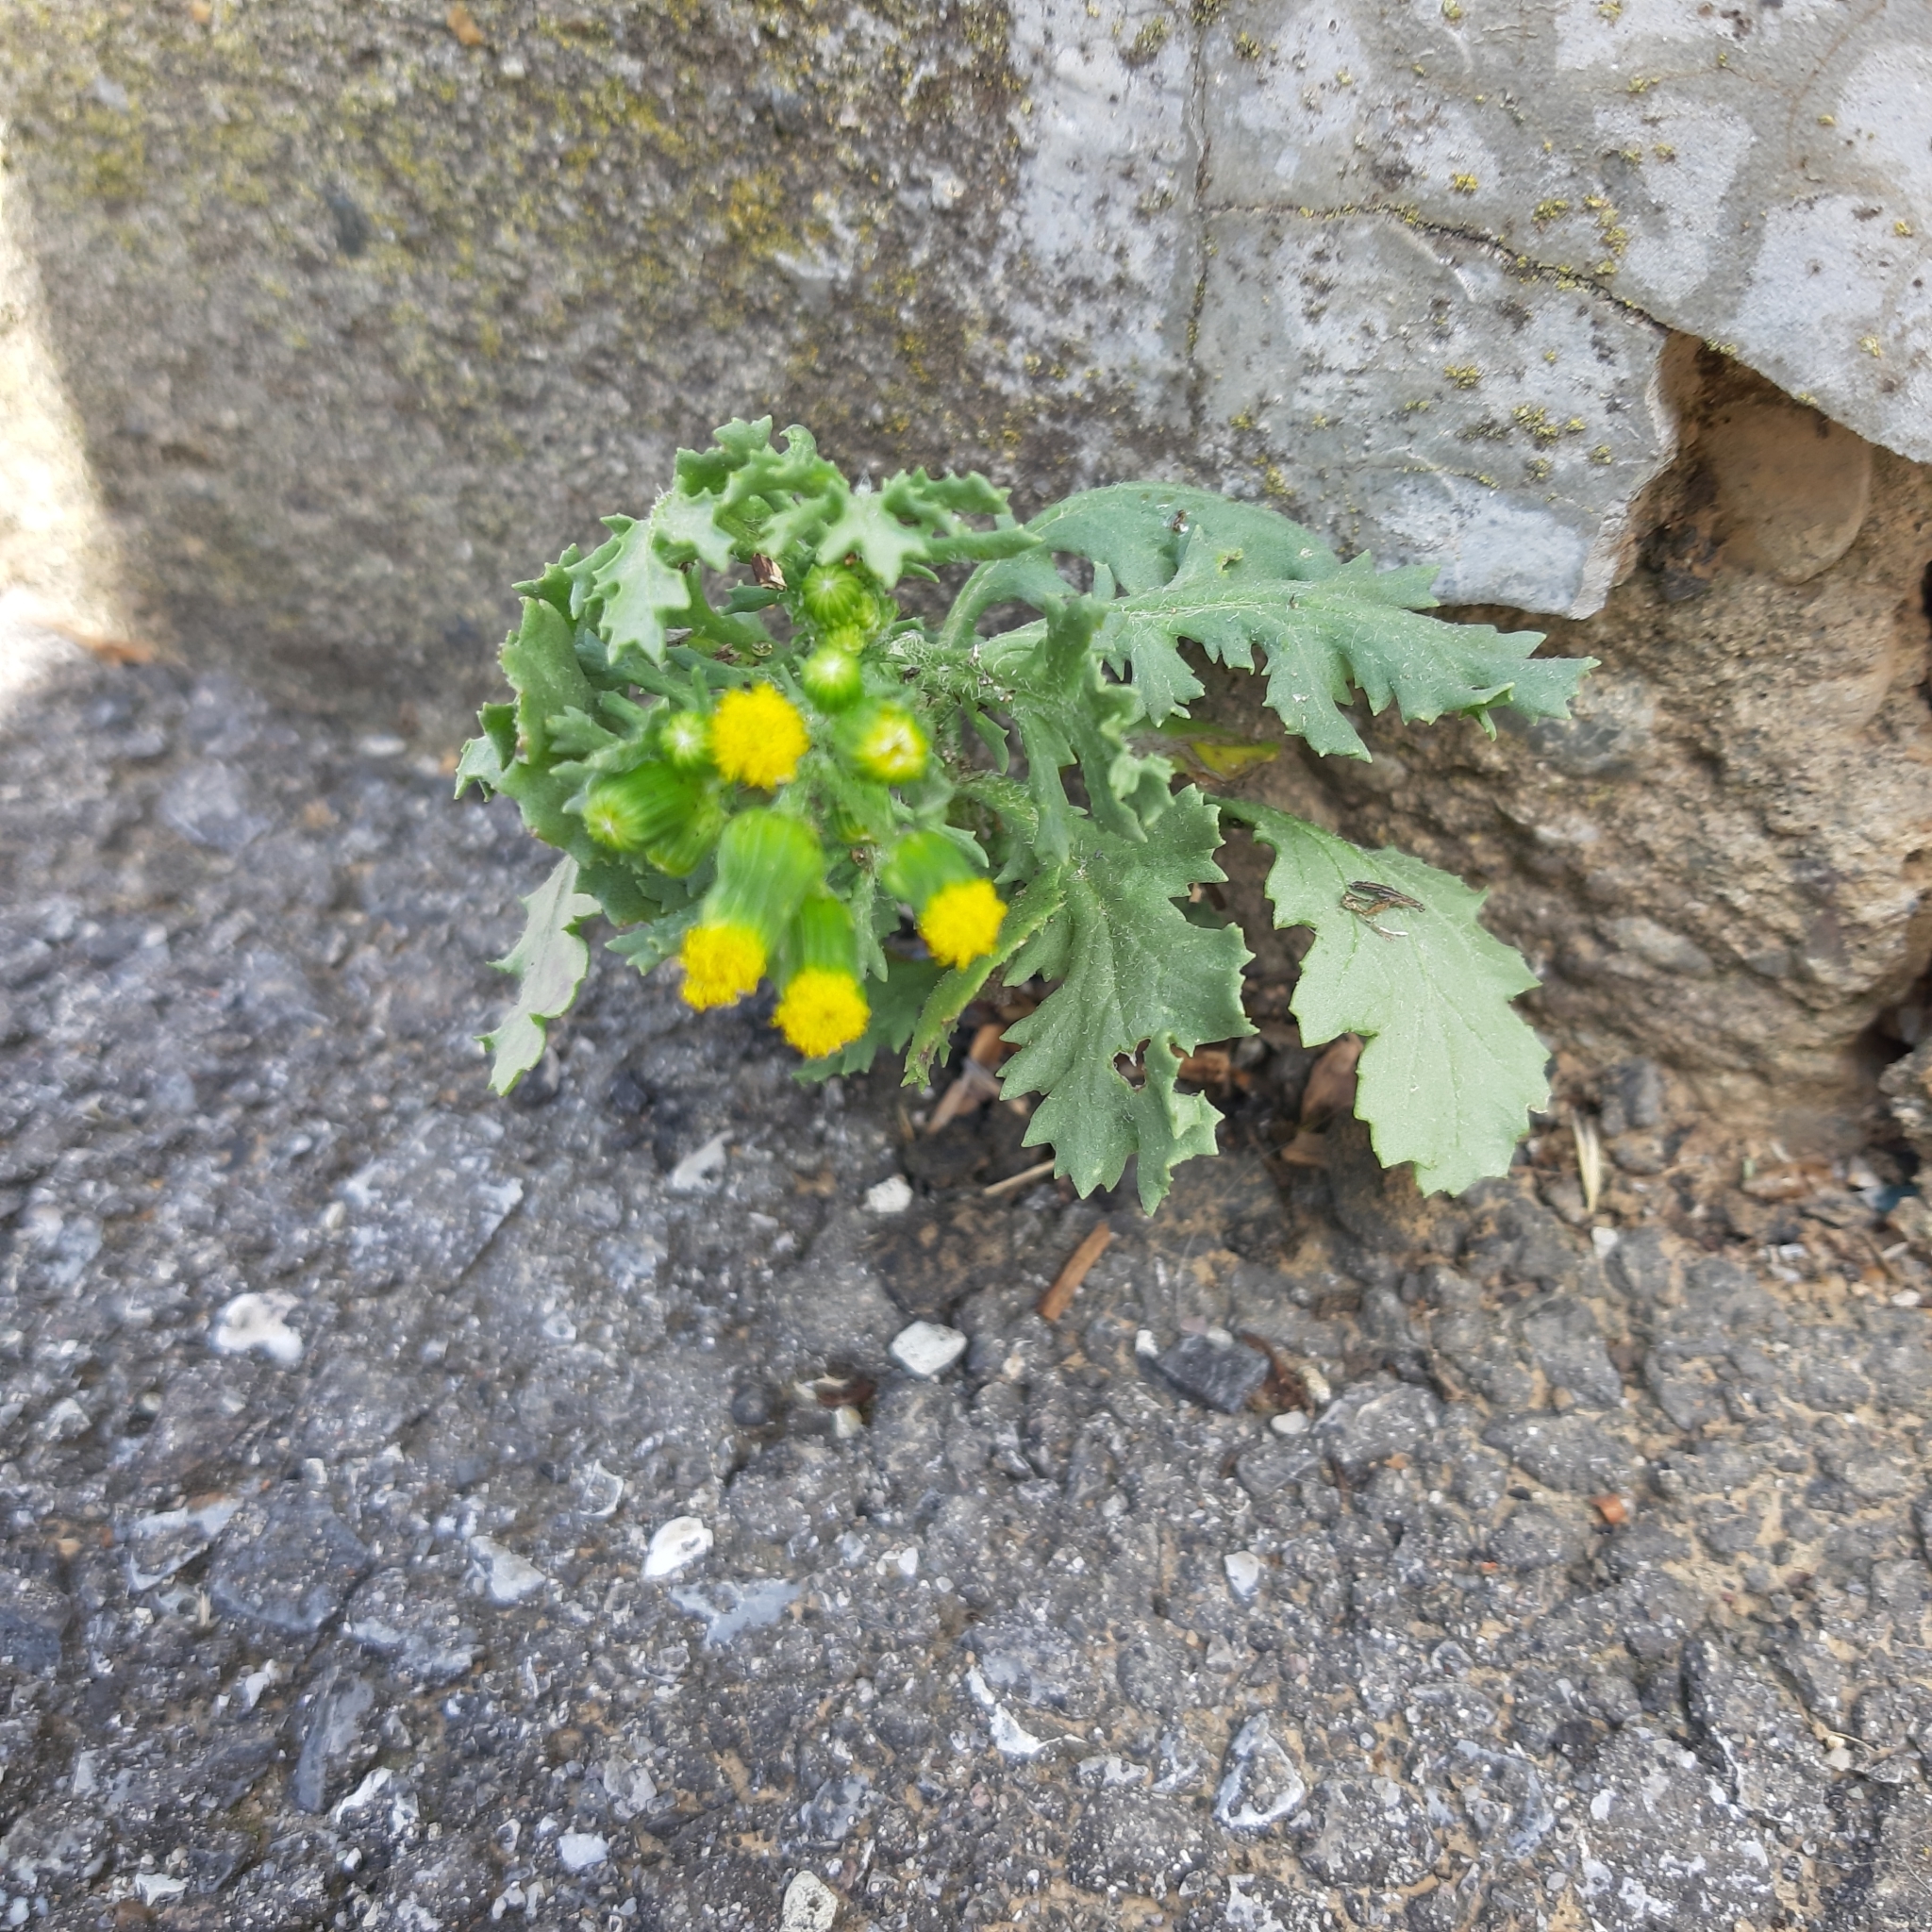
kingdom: Plantae
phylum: Tracheophyta
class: Magnoliopsida
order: Asterales
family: Asteraceae
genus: Senecio
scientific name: Senecio vulgaris
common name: Old-man-in-the-spring
